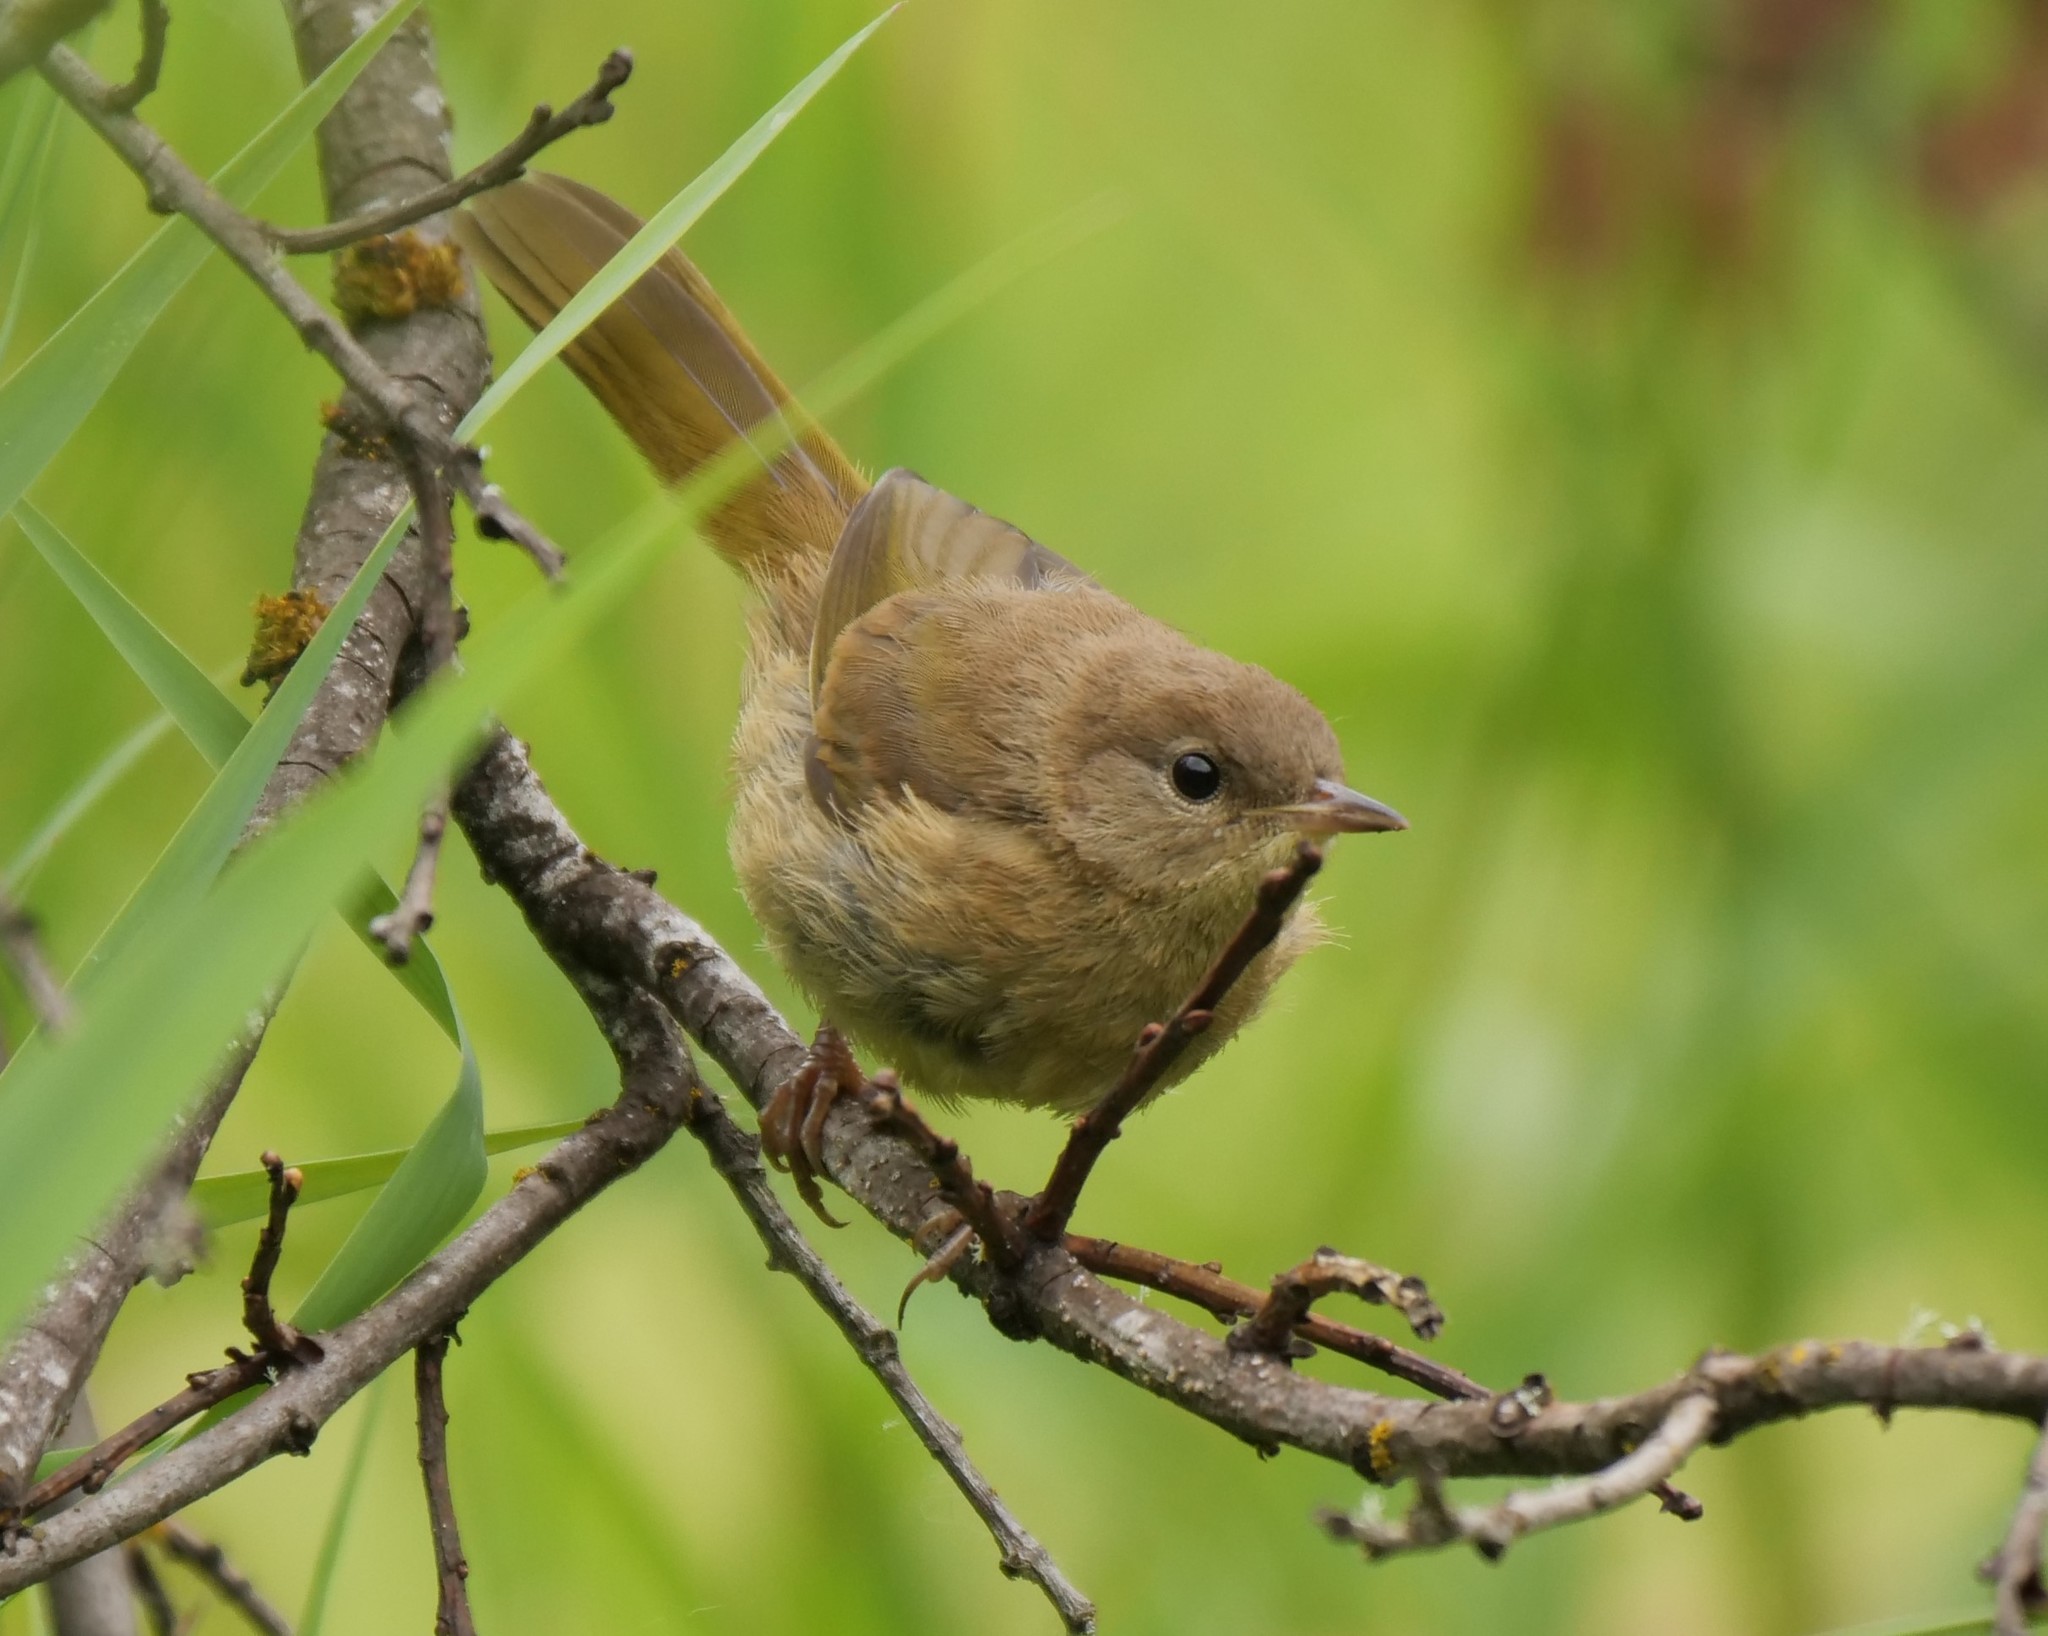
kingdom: Animalia
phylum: Chordata
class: Aves
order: Passeriformes
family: Parulidae
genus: Geothlypis
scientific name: Geothlypis trichas
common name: Common yellowthroat
